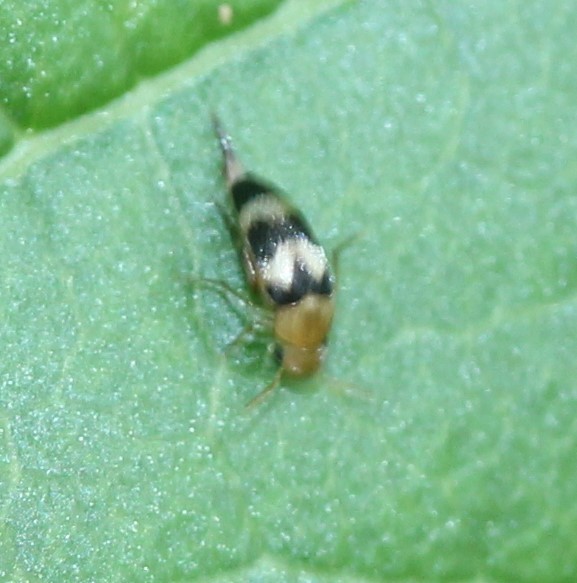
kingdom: Animalia
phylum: Arthropoda
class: Insecta
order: Coleoptera
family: Mordellidae
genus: Mordellistena
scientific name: Mordellistena trifasciata
